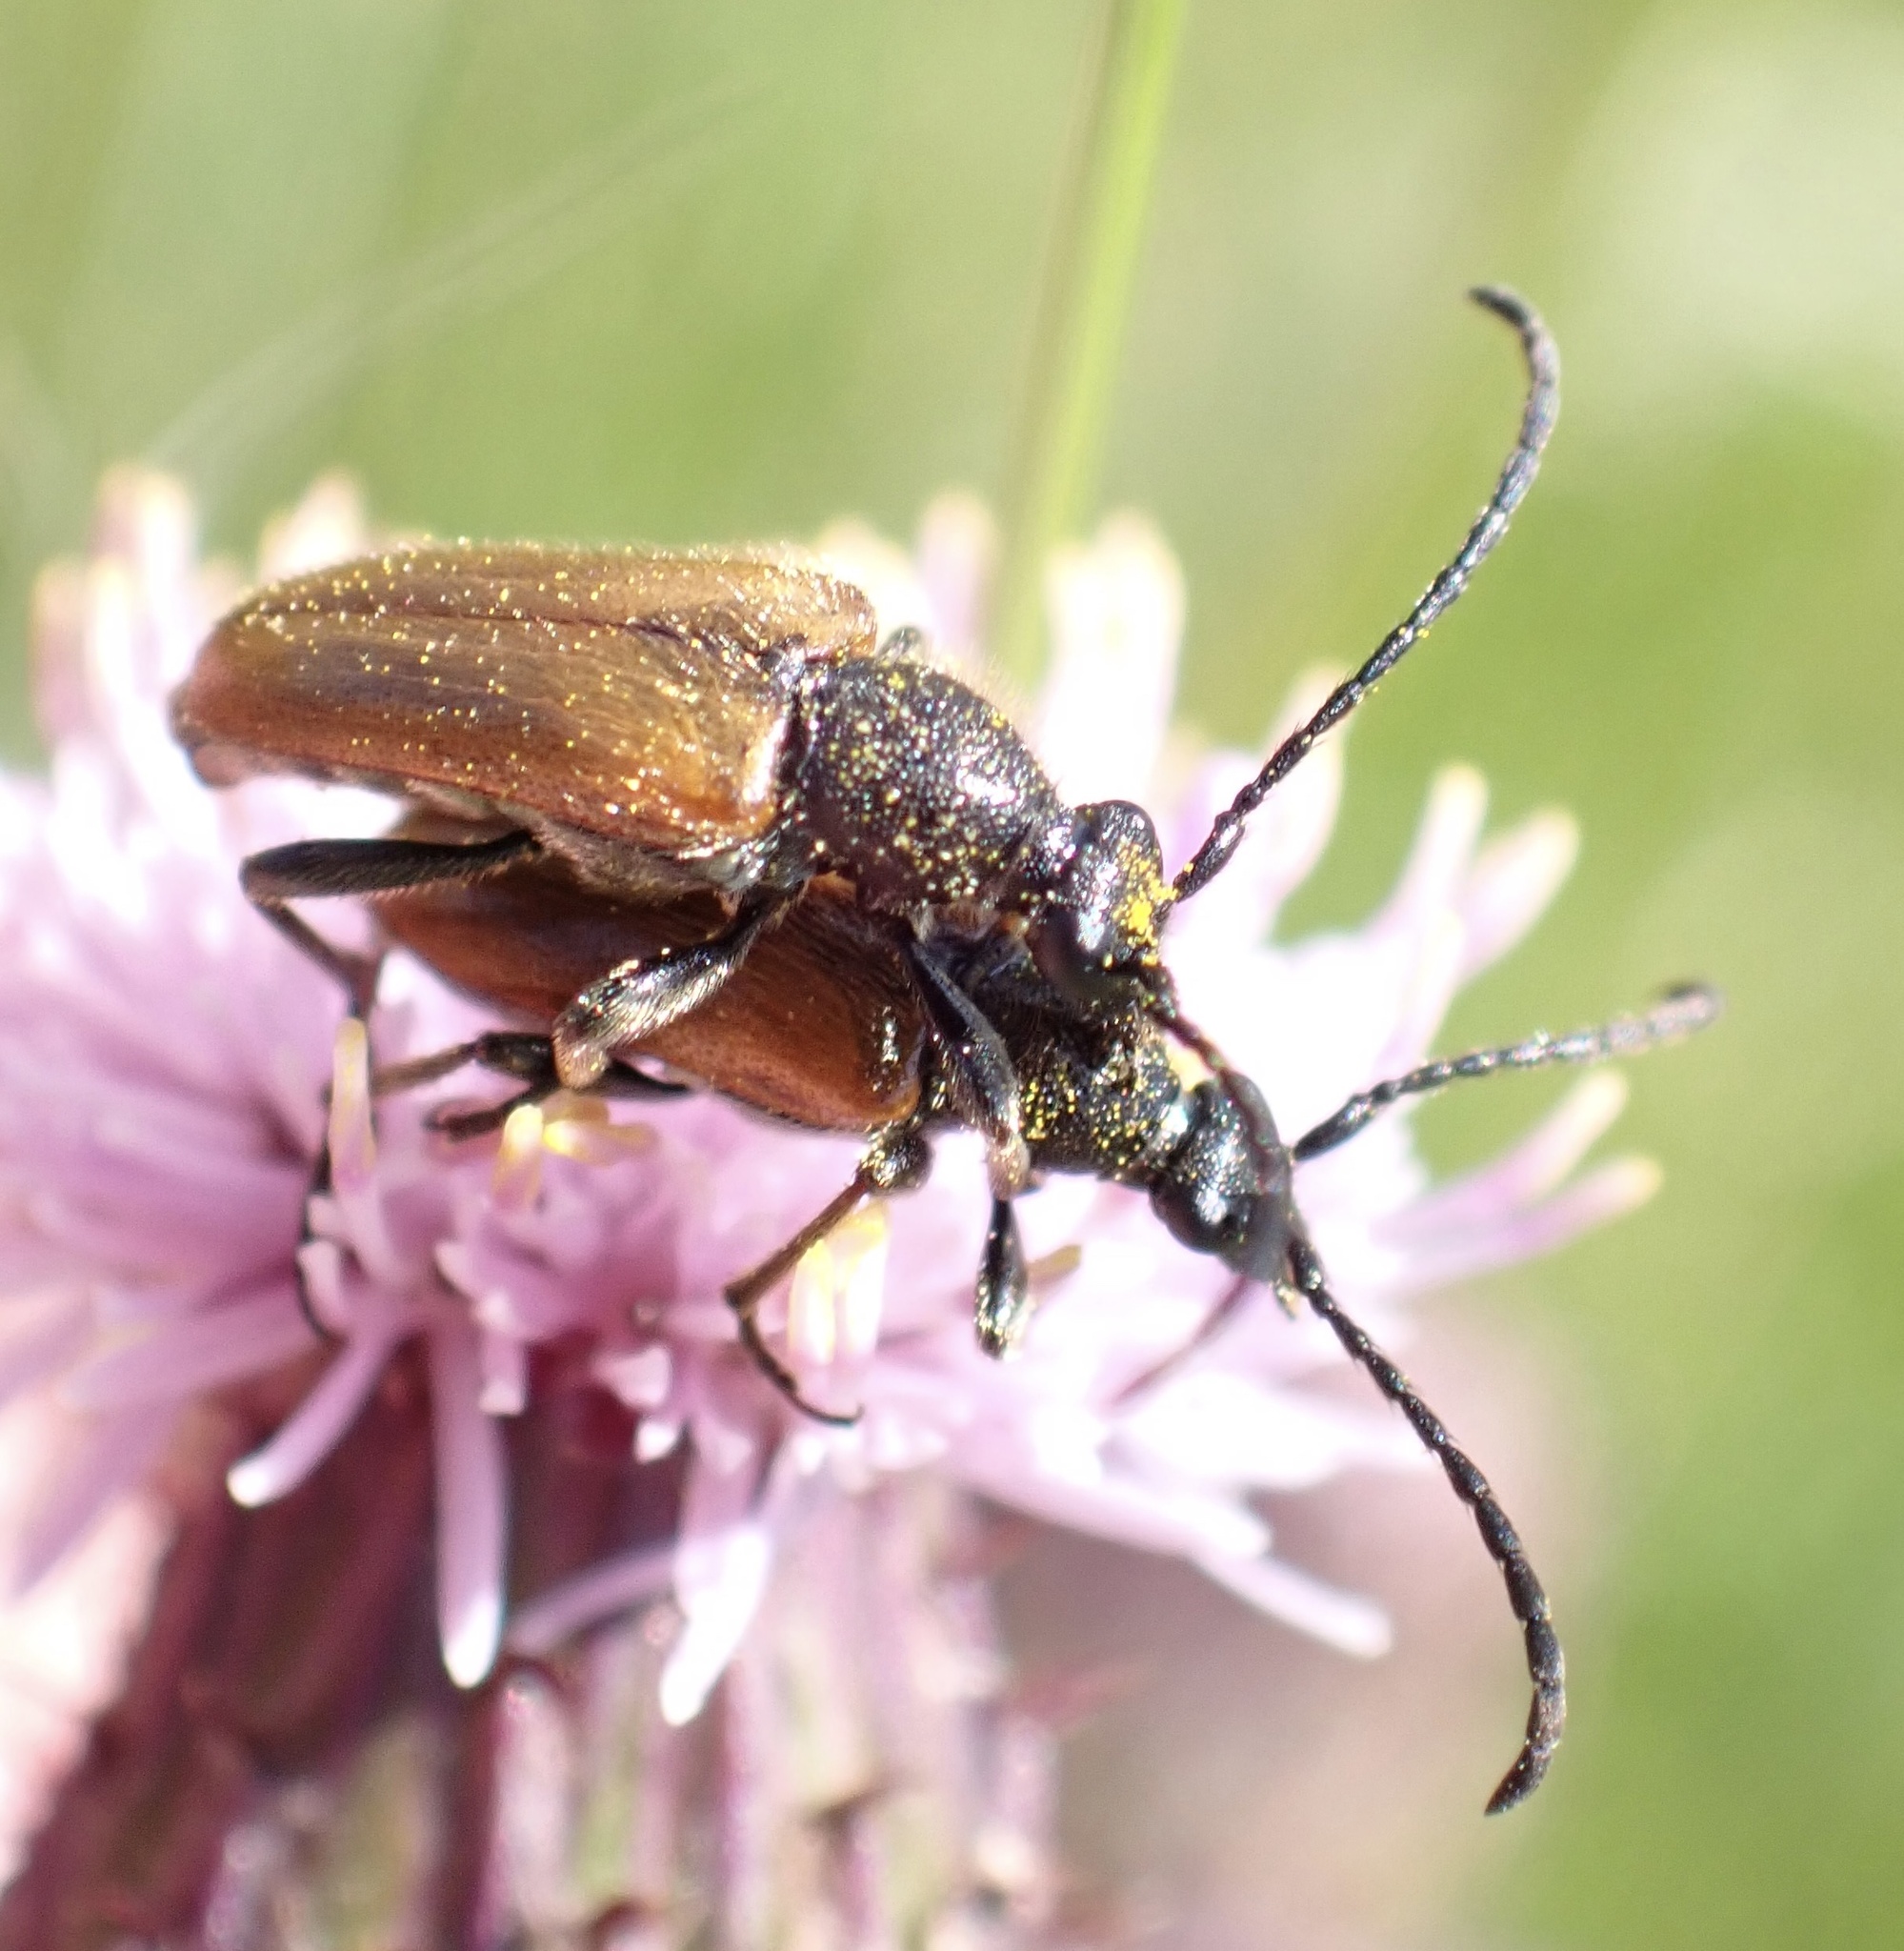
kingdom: Animalia
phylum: Arthropoda
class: Insecta
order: Coleoptera
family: Cerambycidae
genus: Pseudovadonia
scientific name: Pseudovadonia livida
